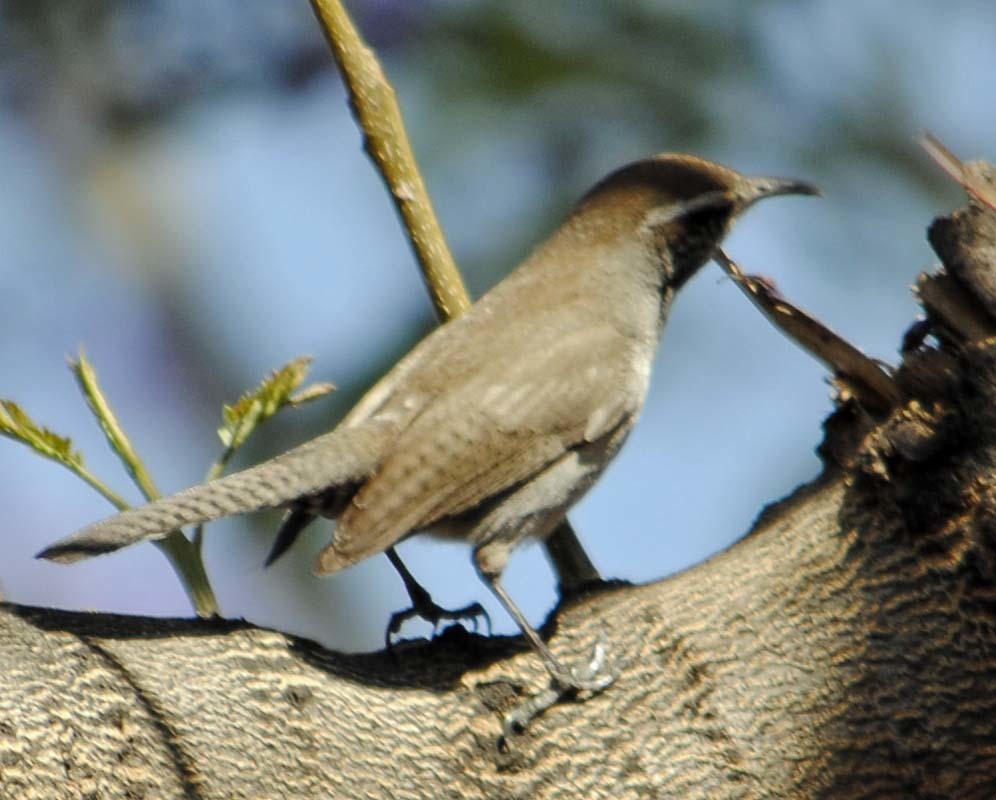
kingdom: Animalia
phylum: Chordata
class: Aves
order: Passeriformes
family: Troglodytidae
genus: Thryomanes
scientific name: Thryomanes bewickii
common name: Bewick's wren
